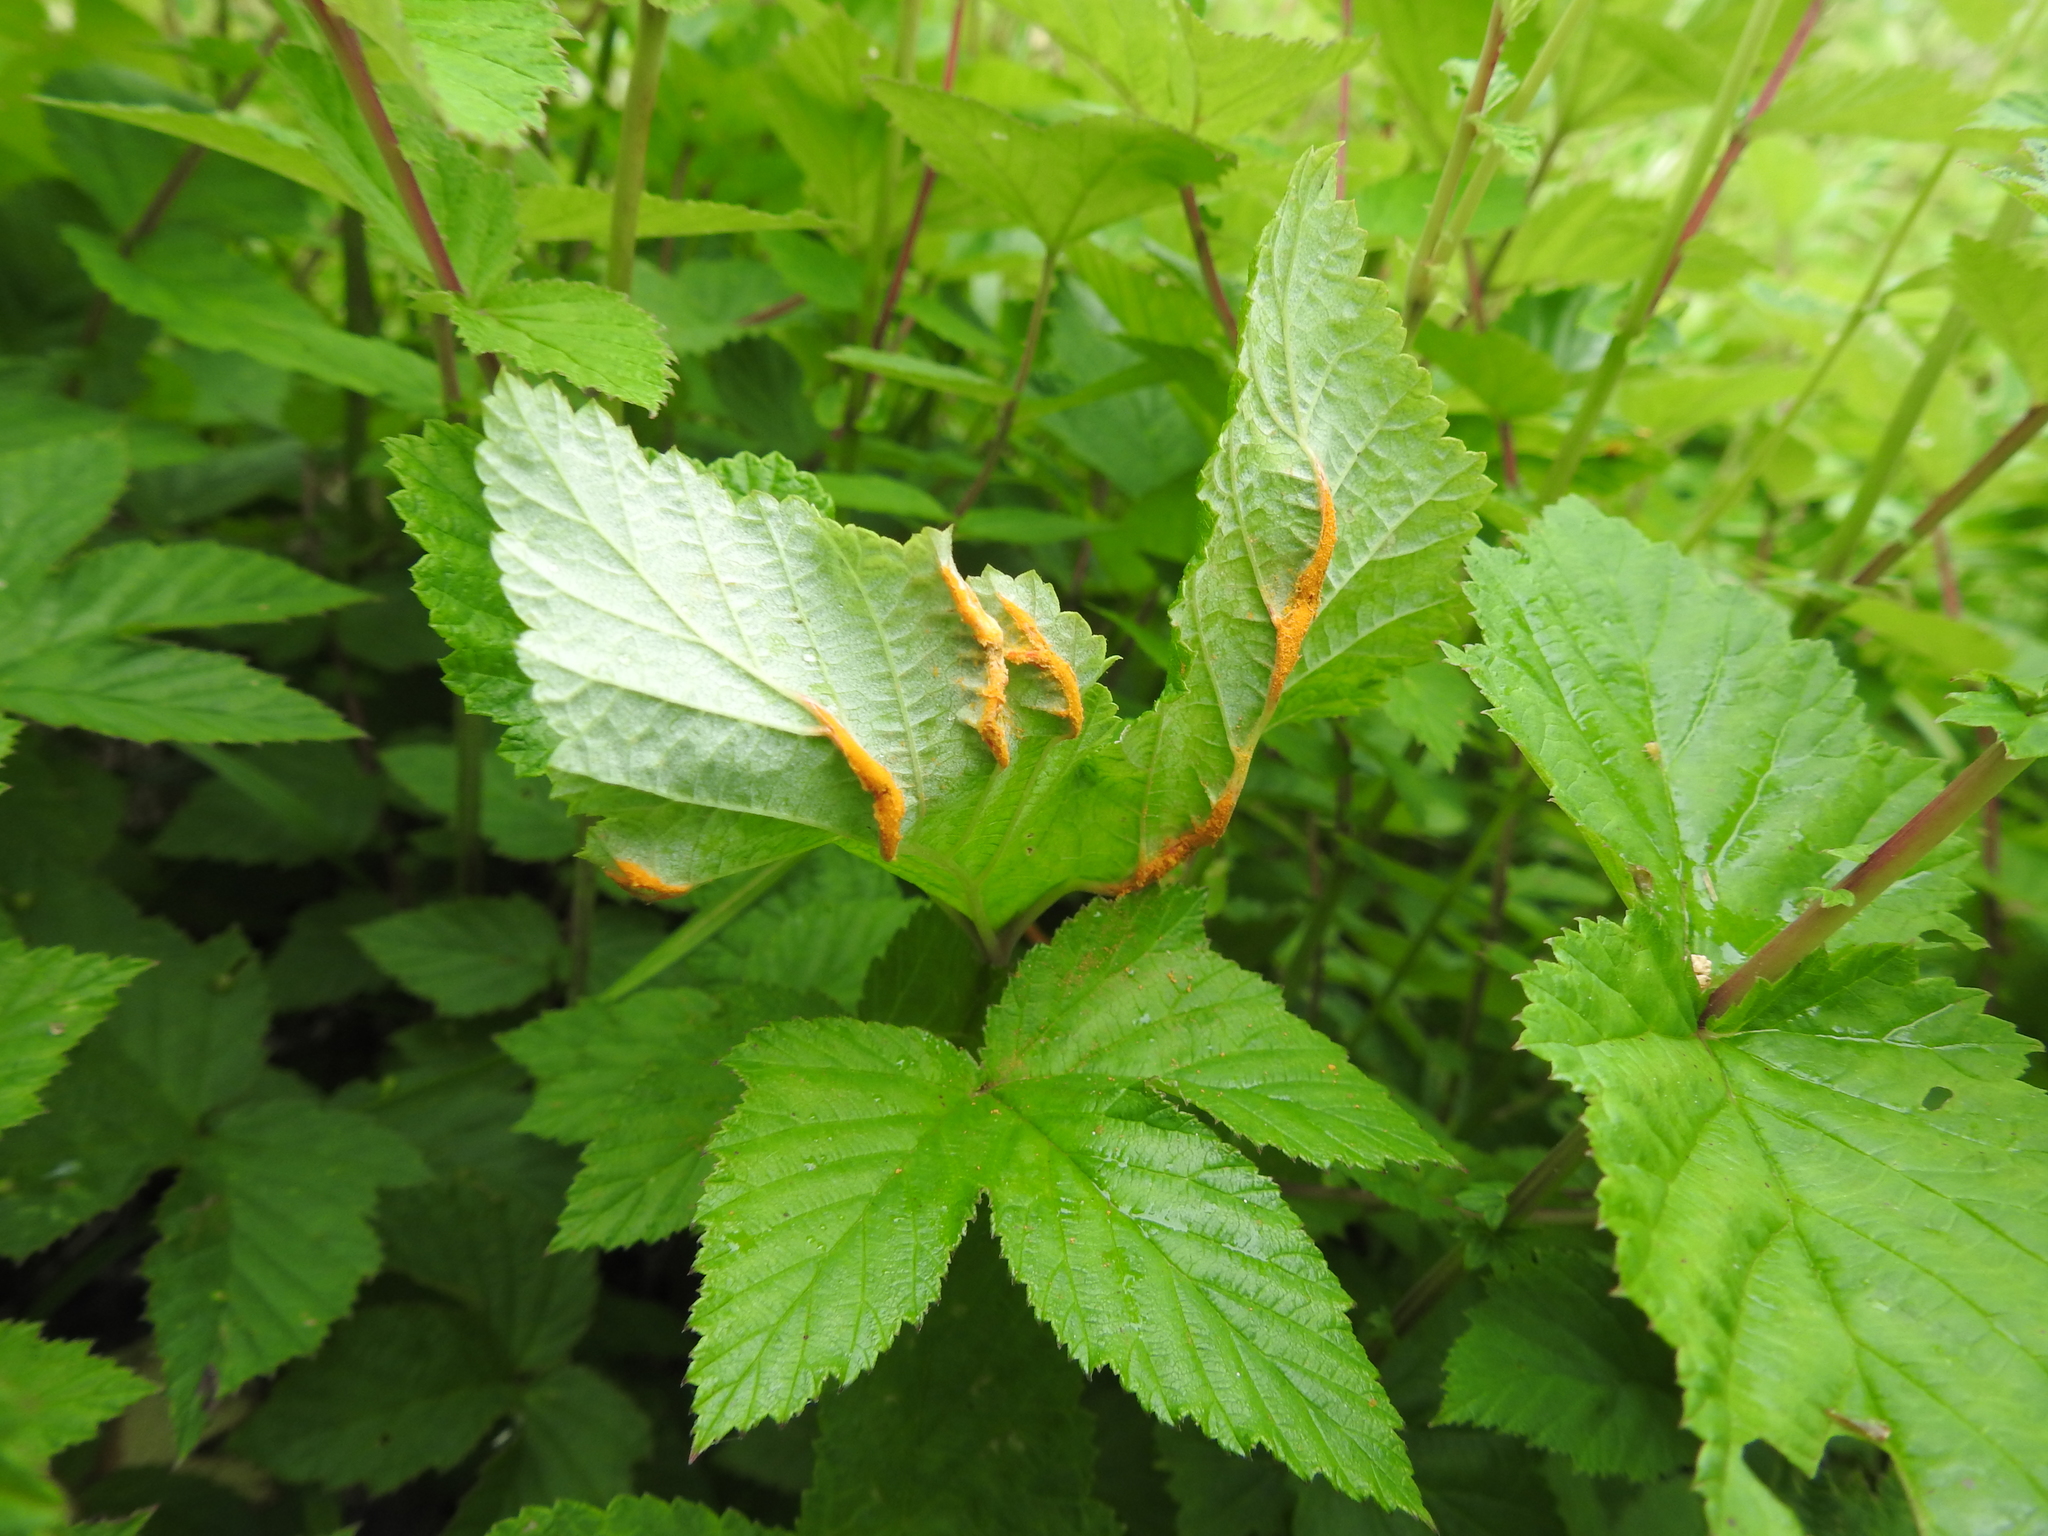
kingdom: Fungi
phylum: Basidiomycota
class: Pucciniomycetes
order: Pucciniales
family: Raveneliaceae
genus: Triphragmium
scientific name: Triphragmium ulmariae
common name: Meadowsweet rust
